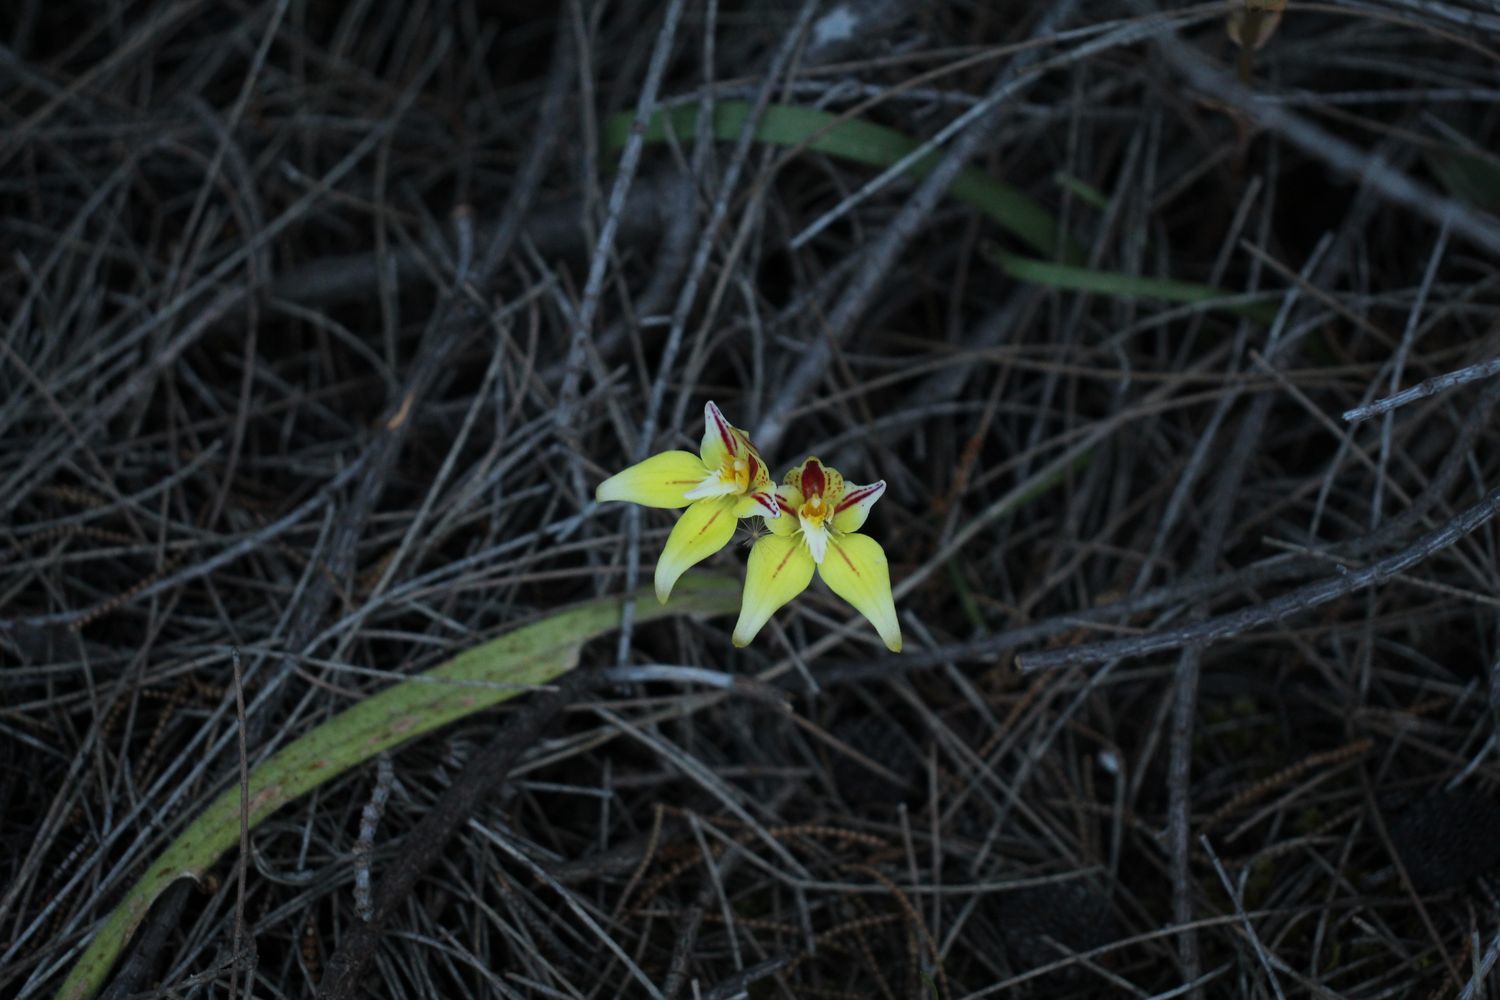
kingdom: Plantae
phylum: Tracheophyta
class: Liliopsida
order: Asparagales
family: Orchidaceae
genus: Caladenia
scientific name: Caladenia flava
